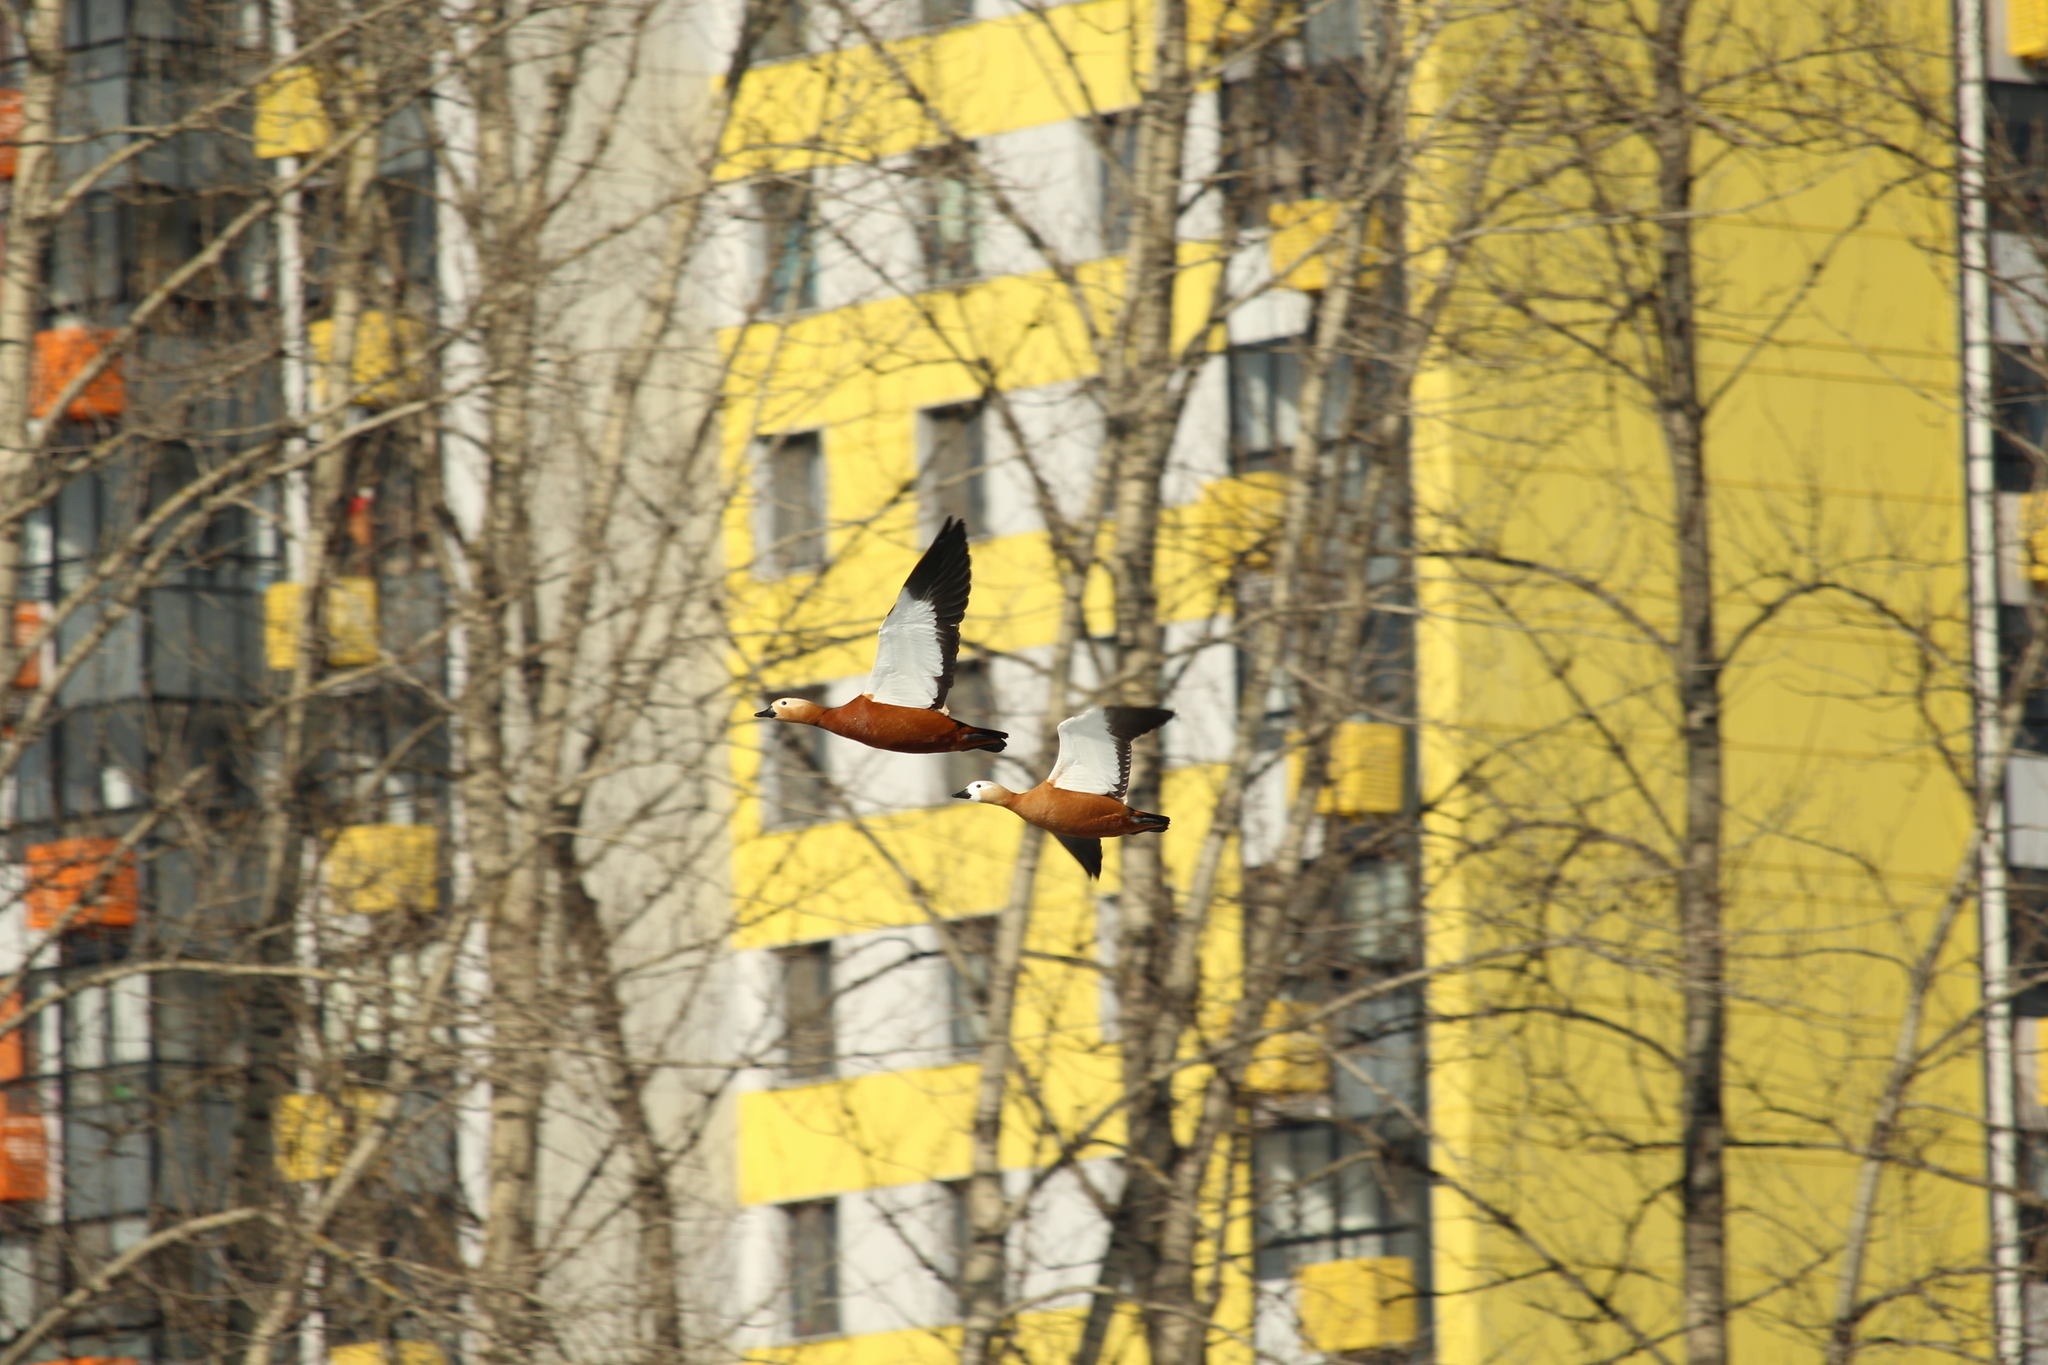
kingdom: Animalia
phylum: Chordata
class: Aves
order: Anseriformes
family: Anatidae
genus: Tadorna
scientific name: Tadorna ferruginea
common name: Ruddy shelduck
